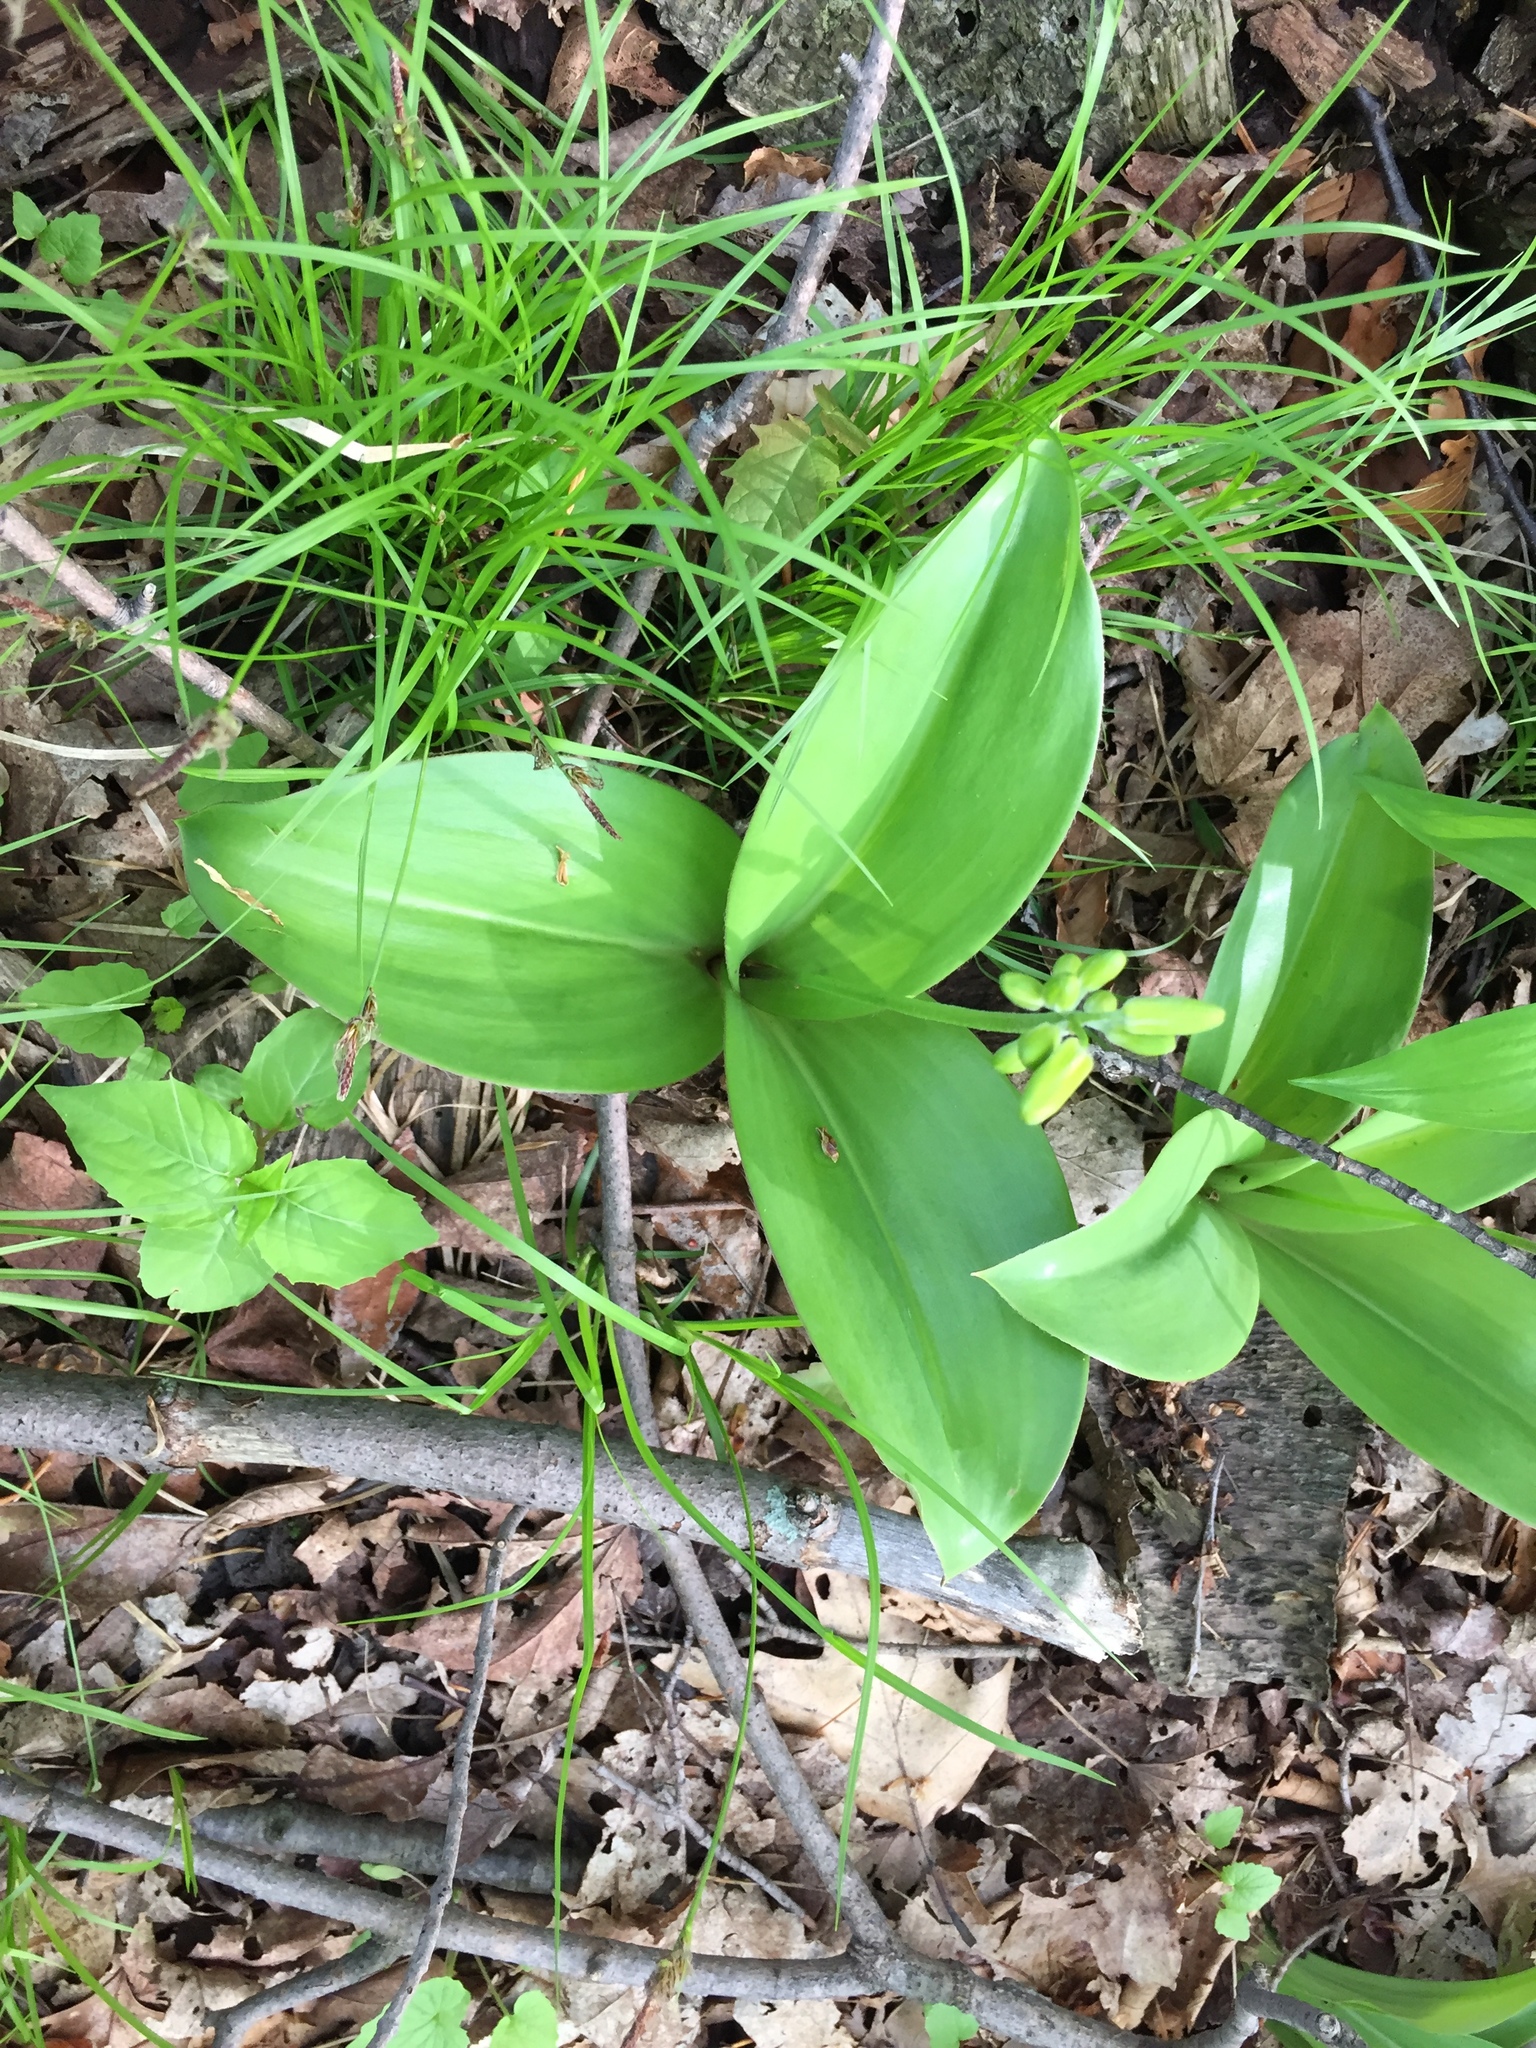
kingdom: Plantae
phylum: Tracheophyta
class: Liliopsida
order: Liliales
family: Liliaceae
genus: Clintonia
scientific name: Clintonia borealis
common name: Yellow clintonia
